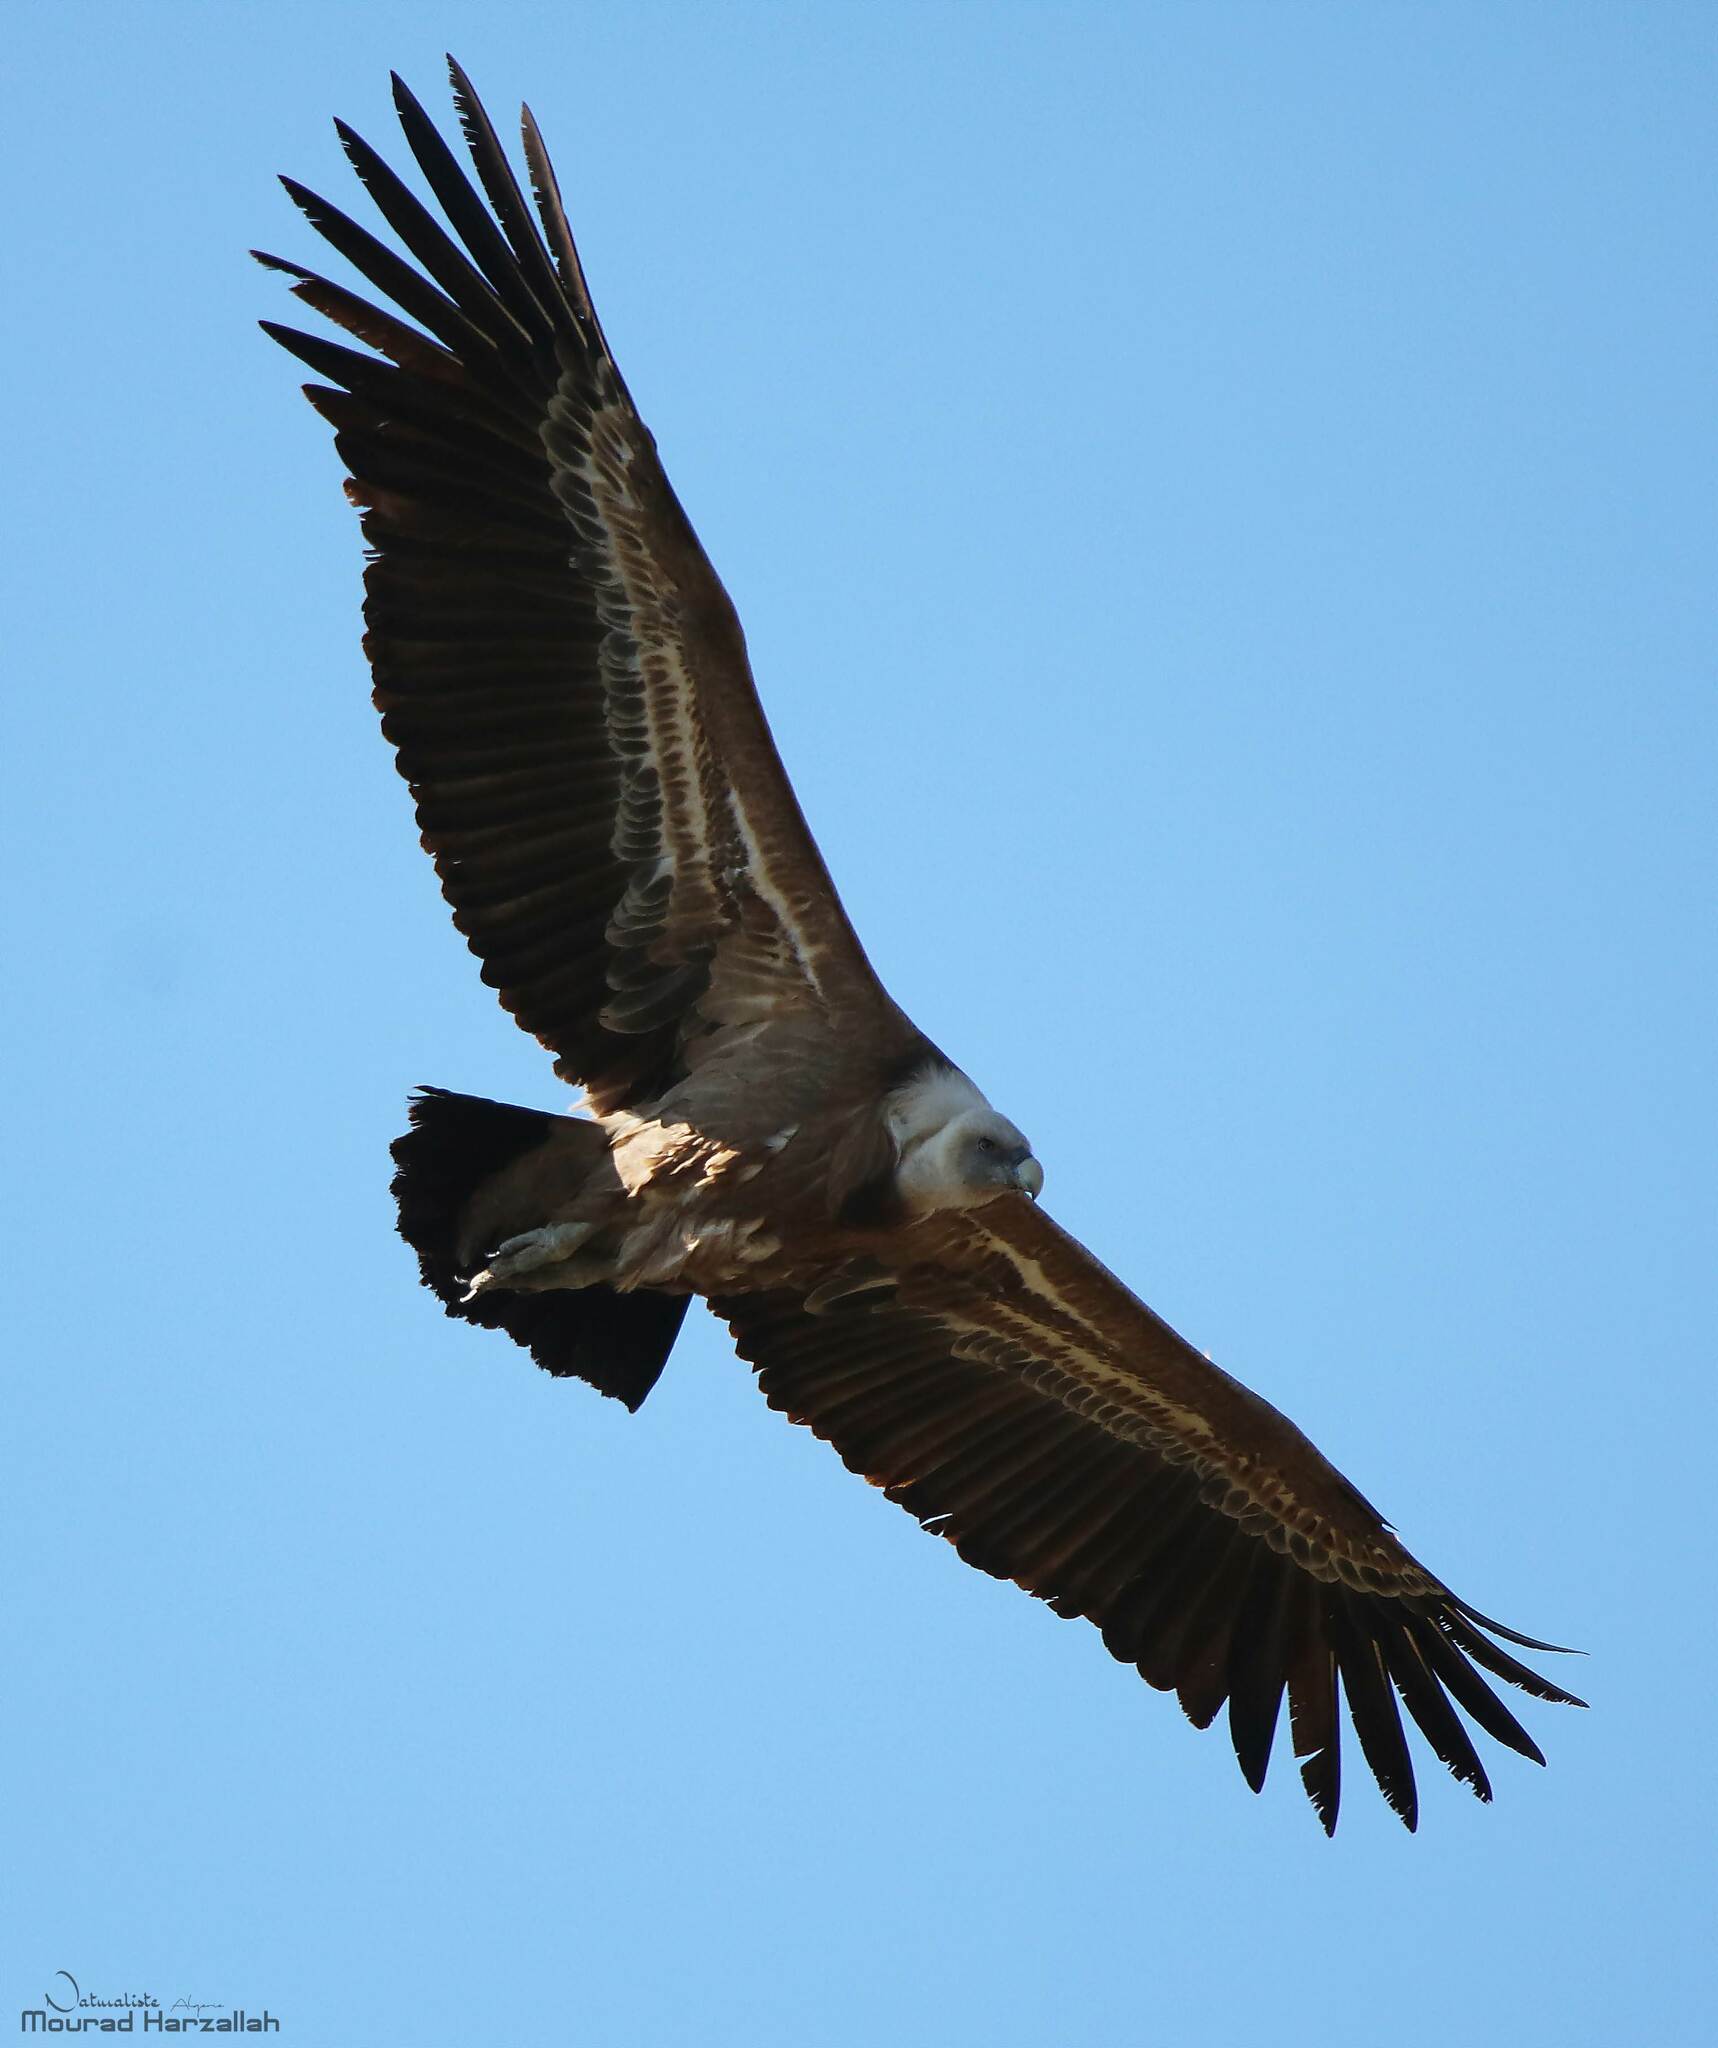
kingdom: Animalia
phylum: Chordata
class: Aves
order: Accipitriformes
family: Accipitridae
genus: Gyps
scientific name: Gyps fulvus
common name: Griffon vulture
